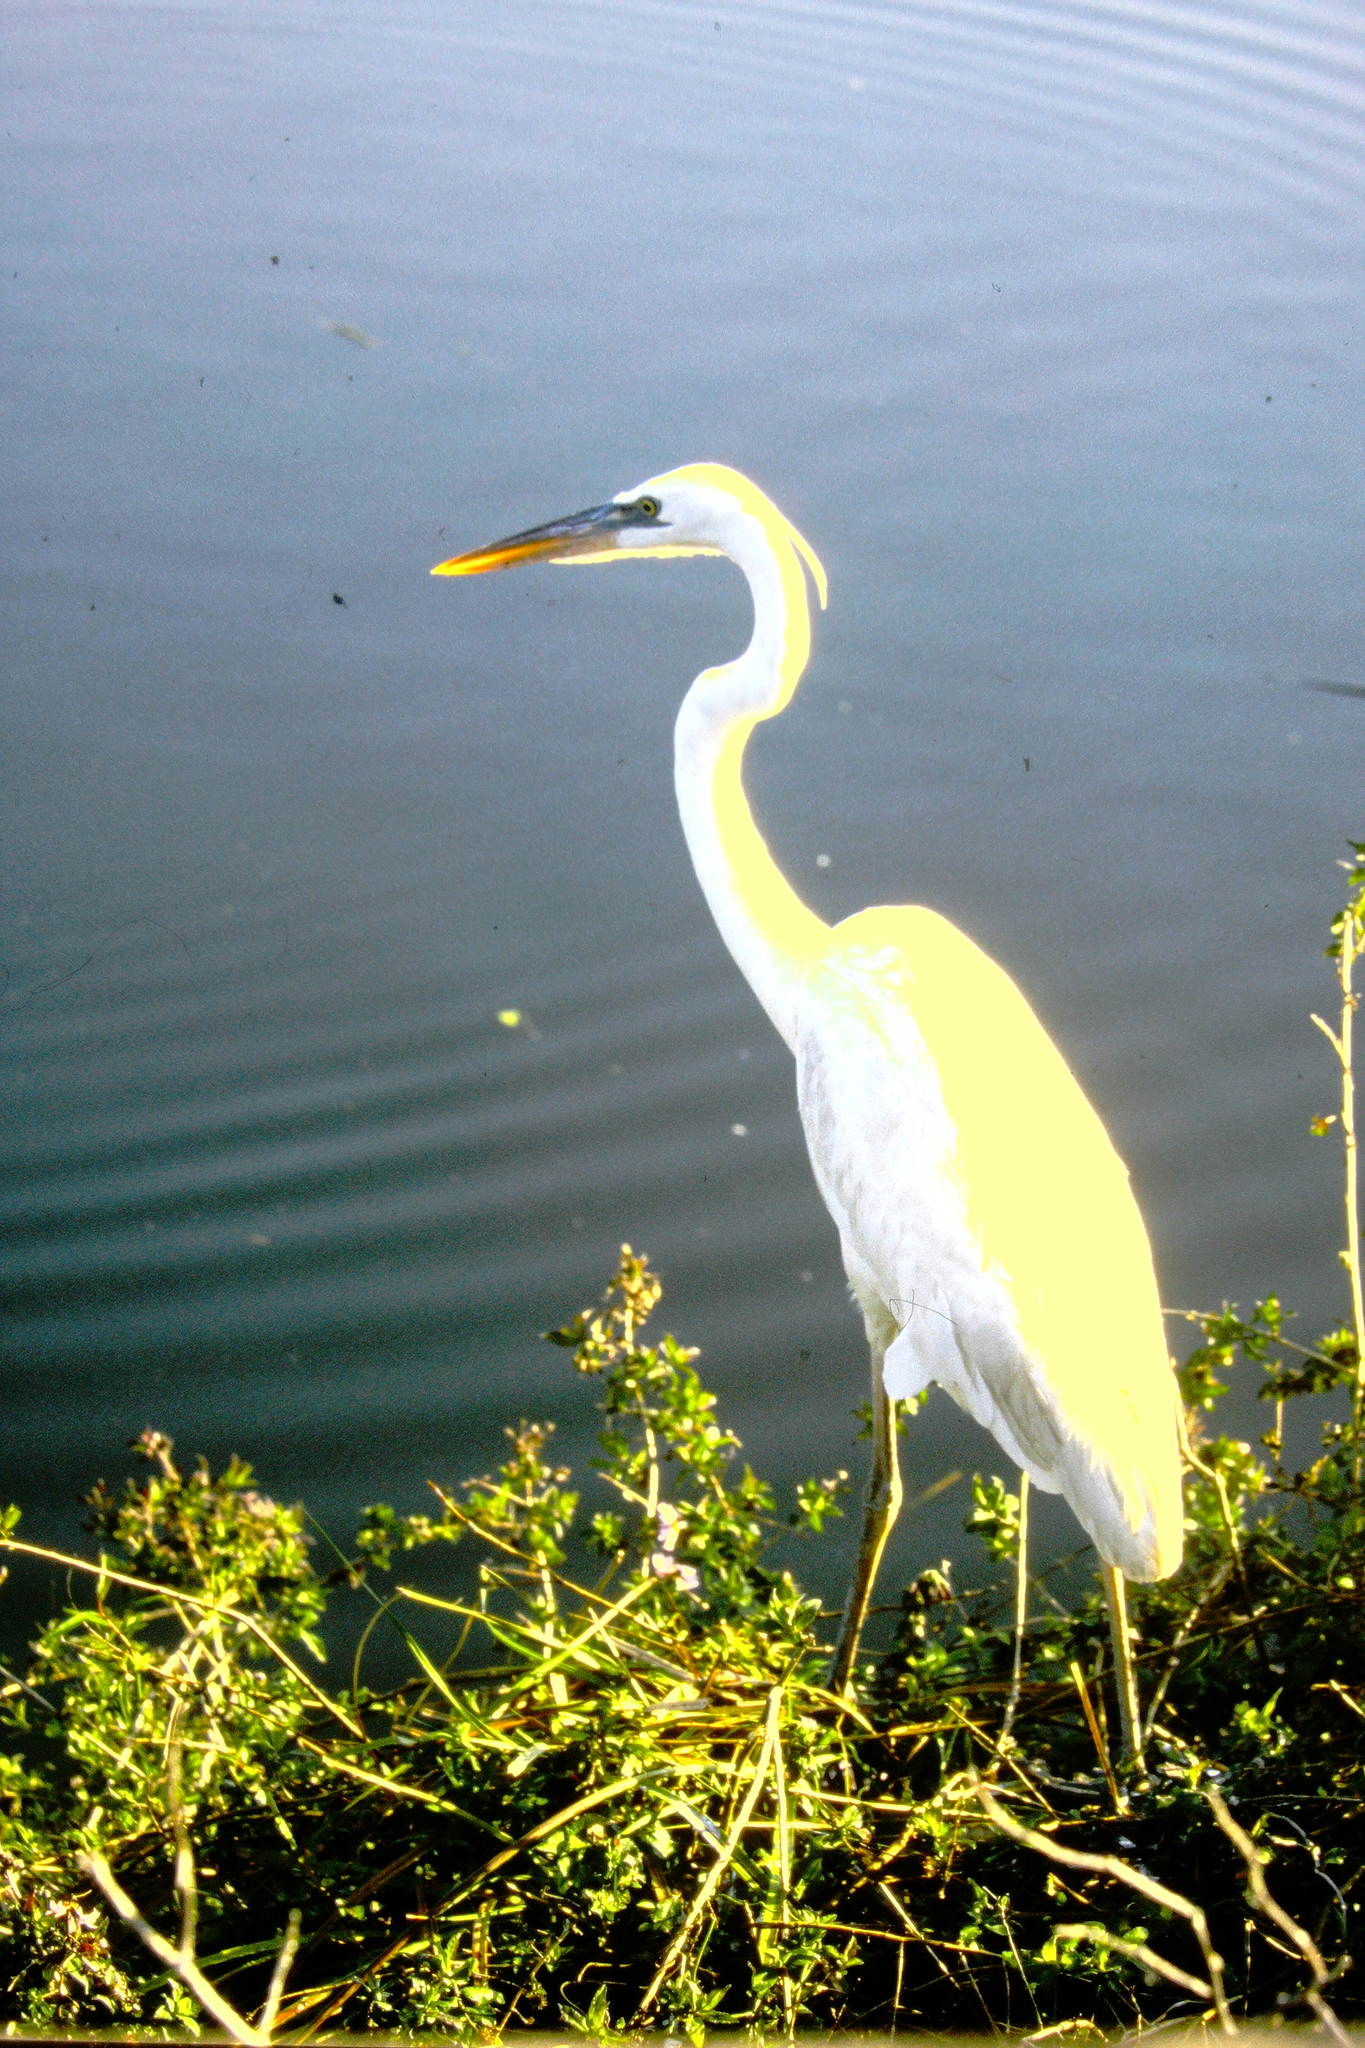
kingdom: Animalia
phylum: Chordata
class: Aves
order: Pelecaniformes
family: Ardeidae
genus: Ardea
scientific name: Ardea herodias
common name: Great blue heron
